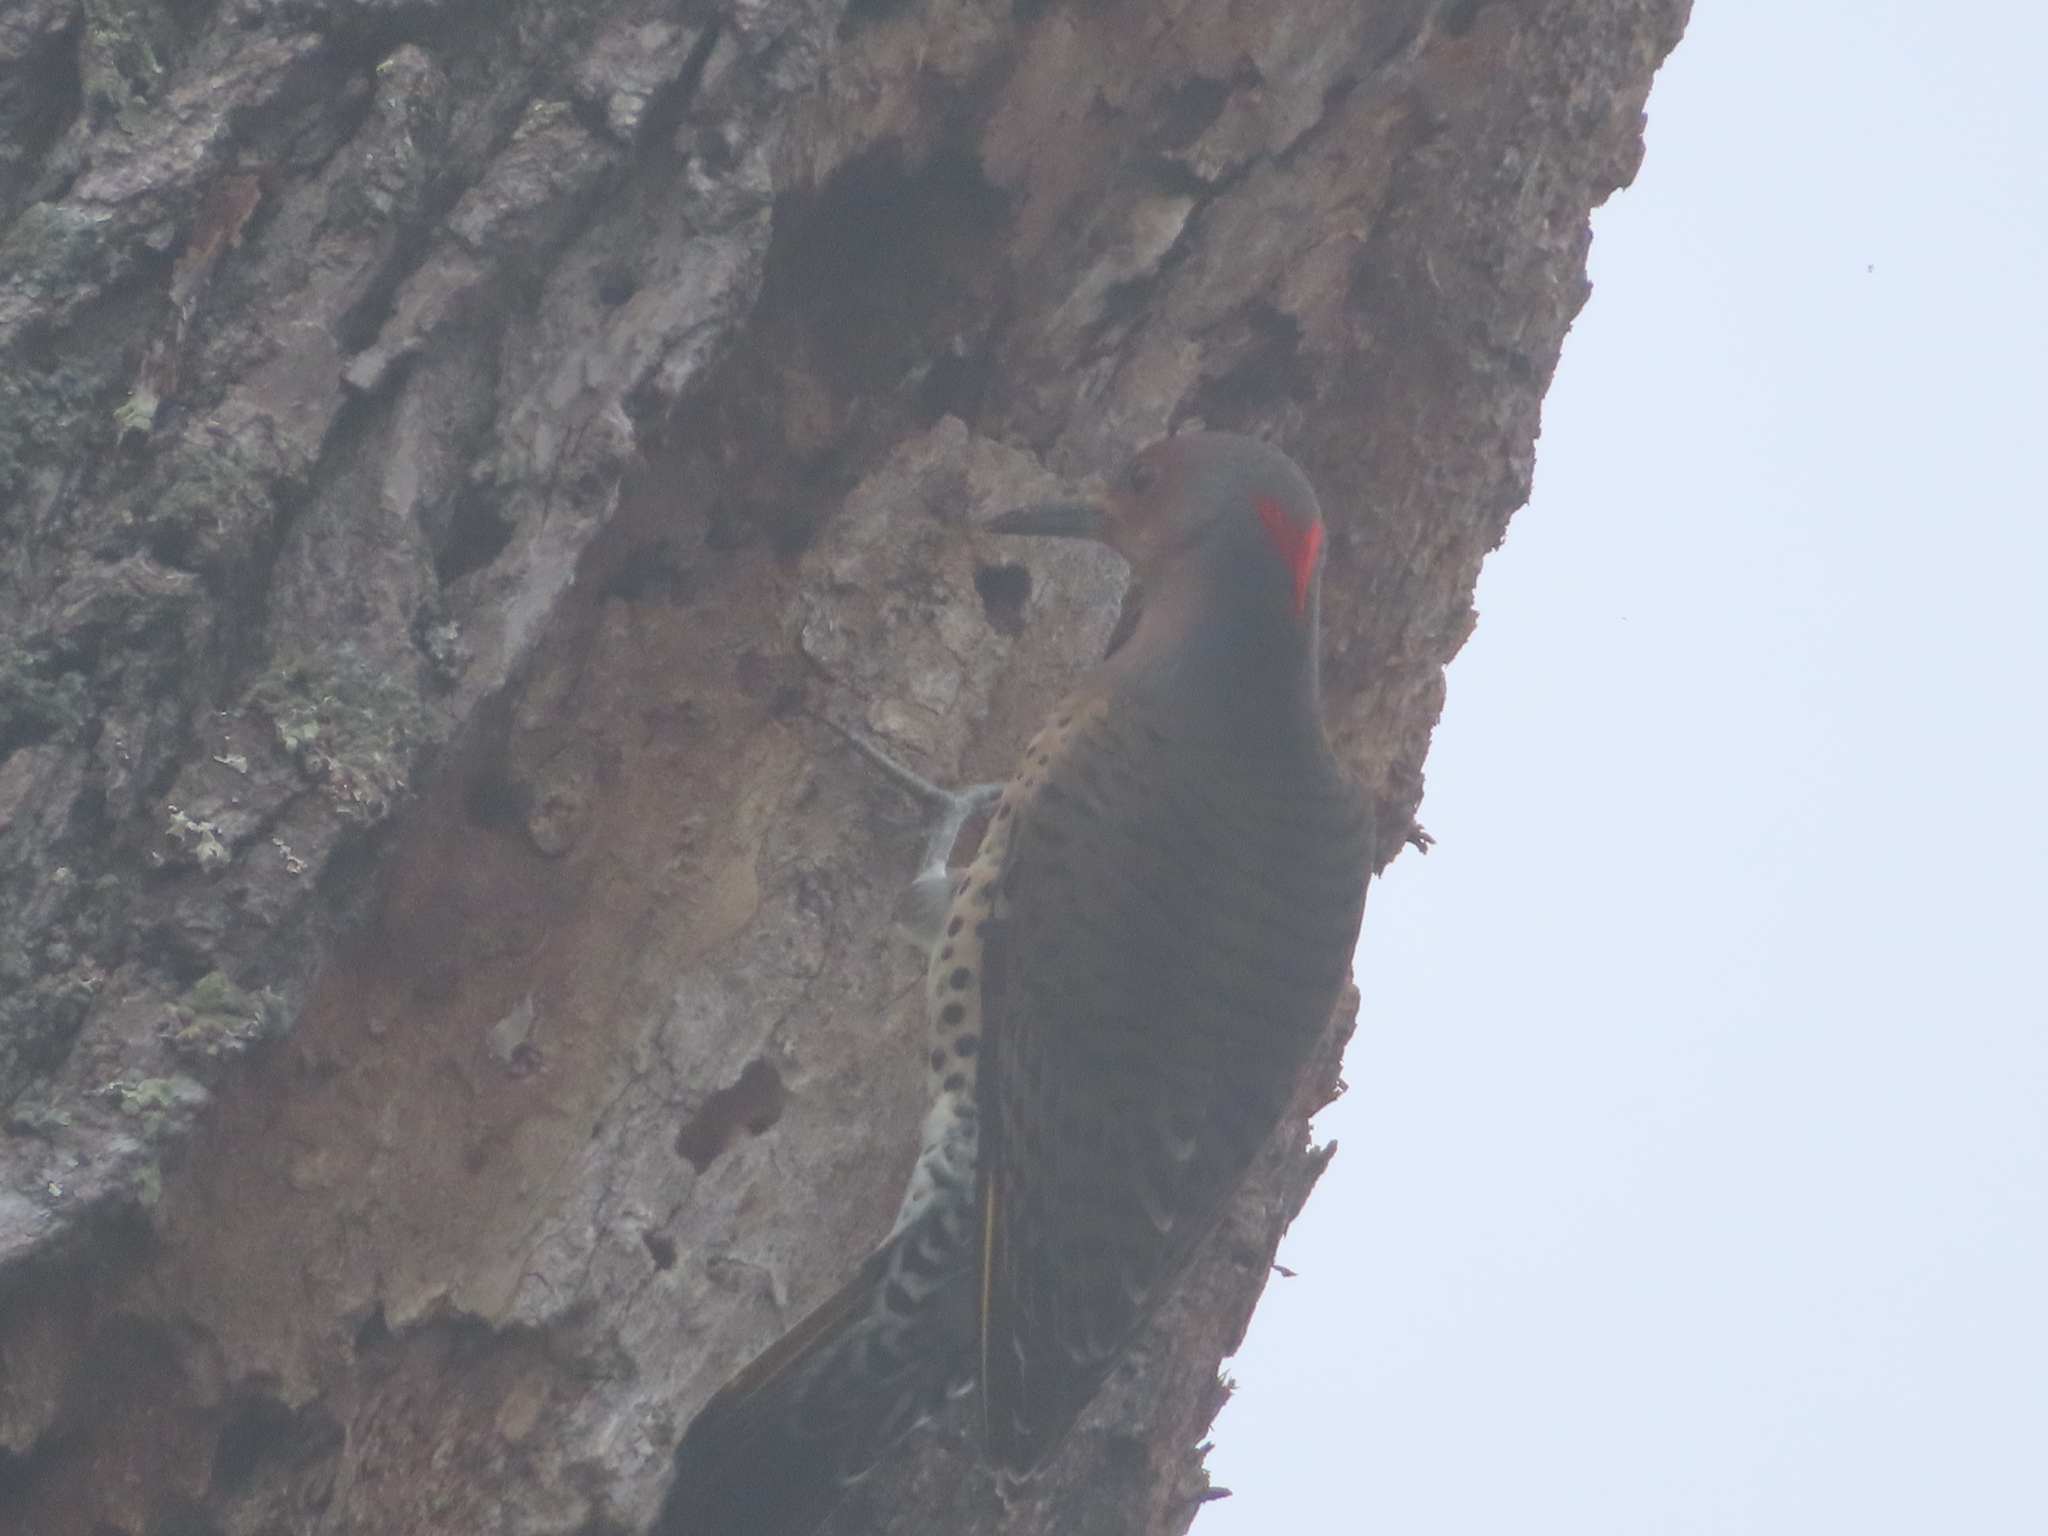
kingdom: Animalia
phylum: Chordata
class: Aves
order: Piciformes
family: Picidae
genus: Colaptes
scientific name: Colaptes auratus
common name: Northern flicker
